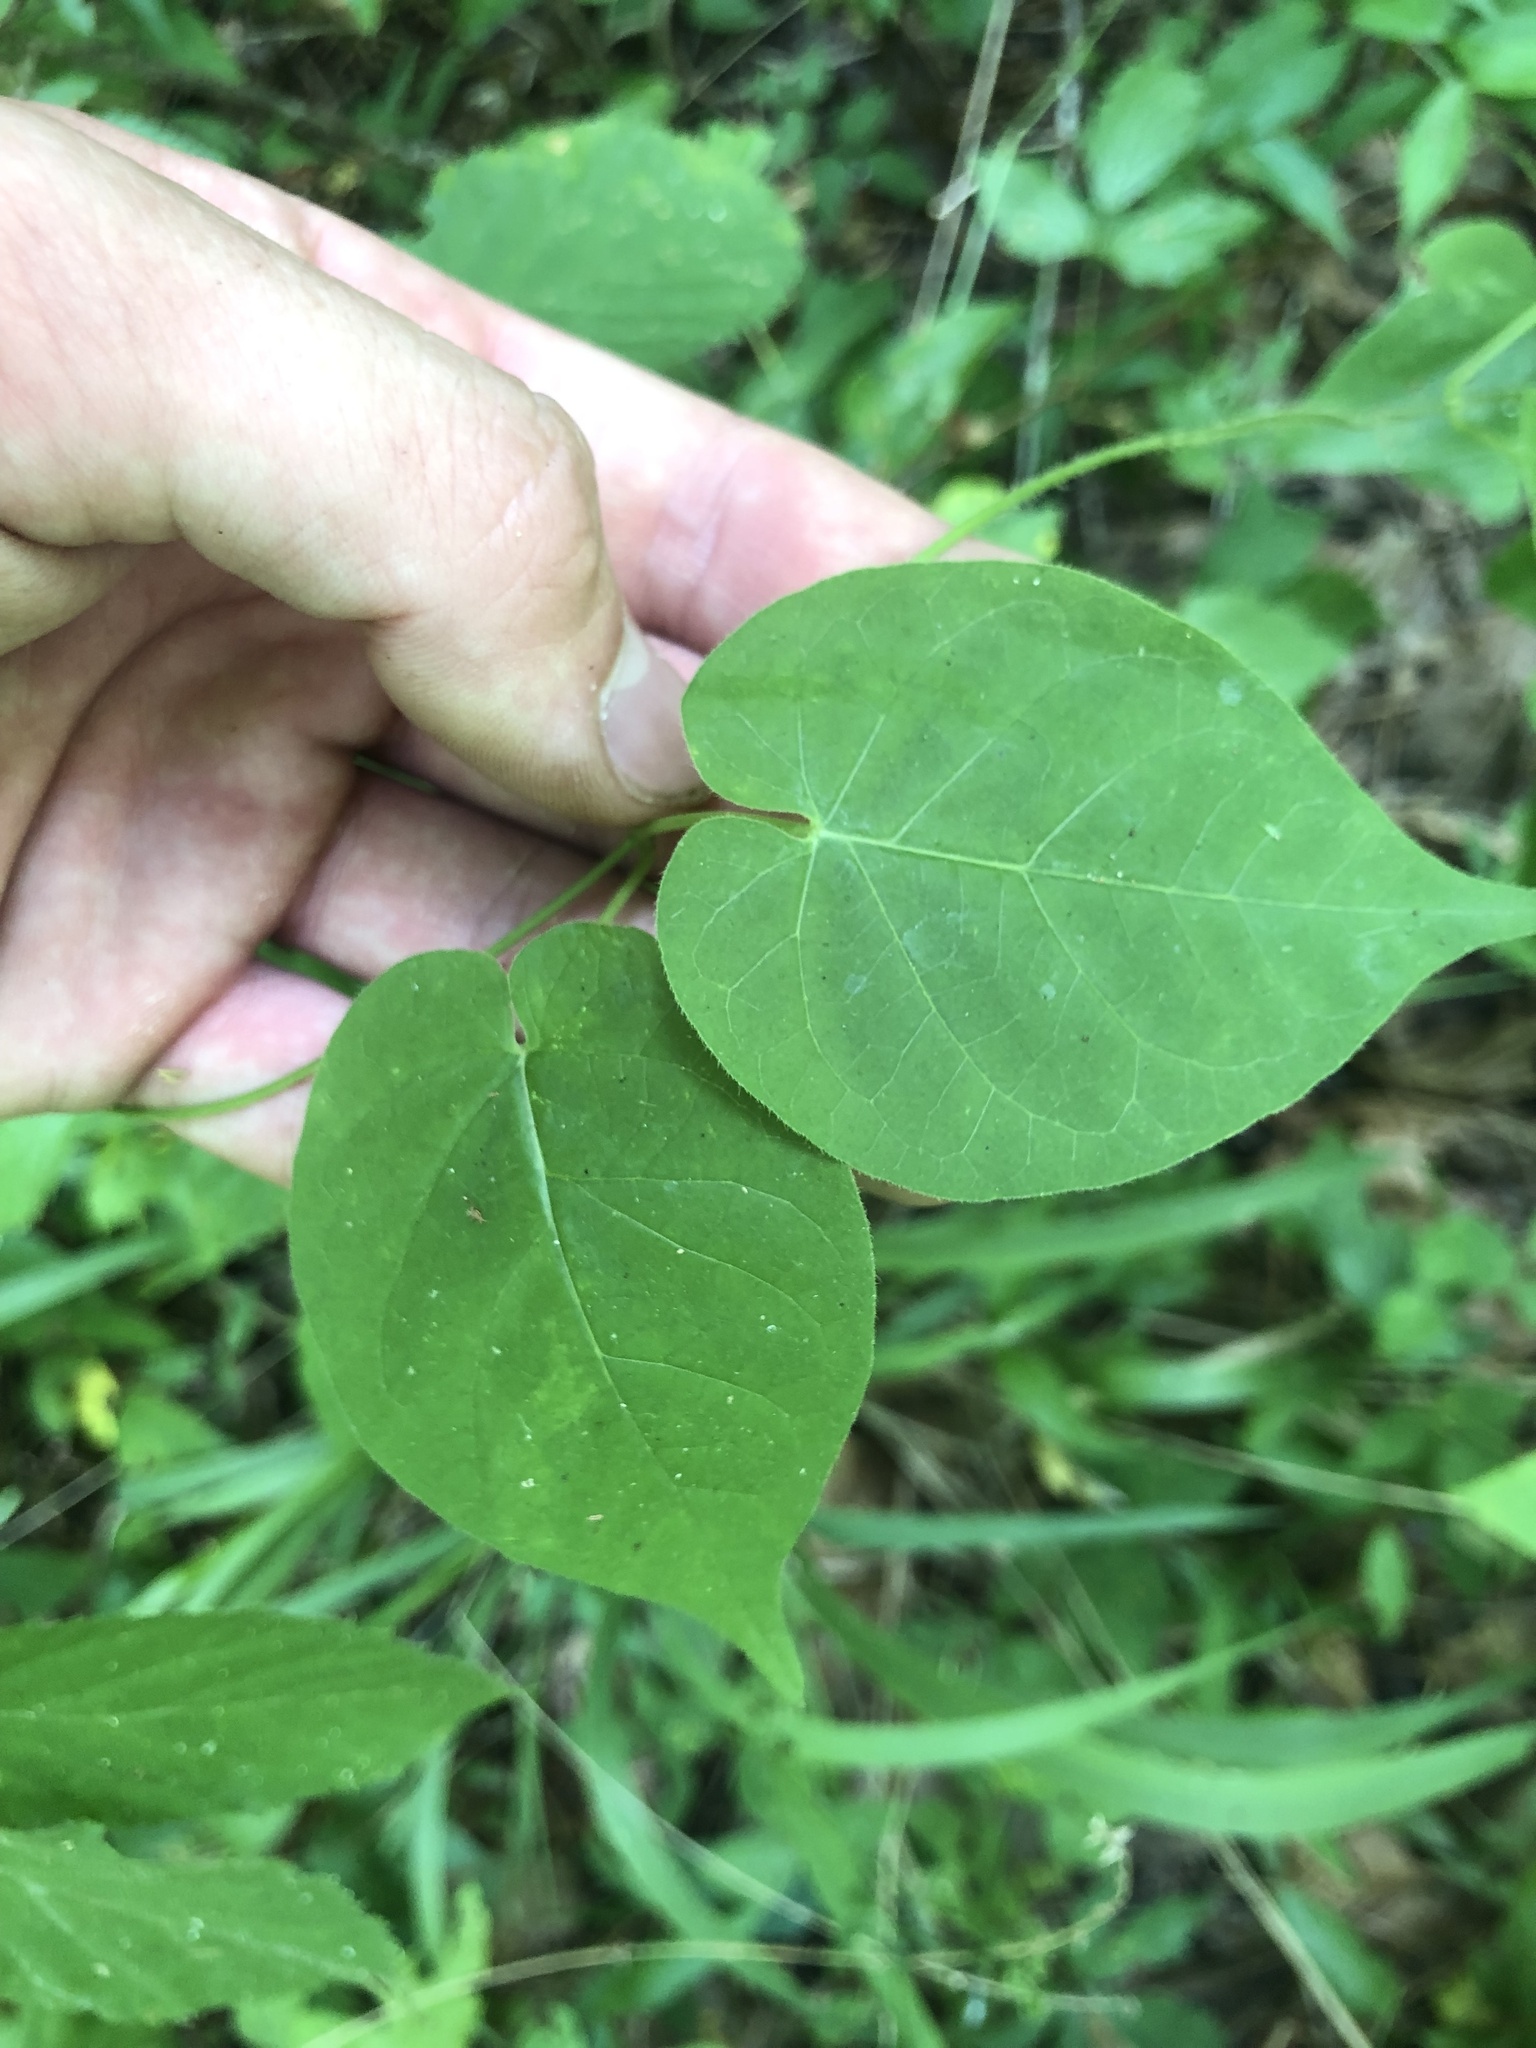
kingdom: Plantae
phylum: Tracheophyta
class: Magnoliopsida
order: Gentianales
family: Apocynaceae
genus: Matelea
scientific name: Matelea carolinensis
